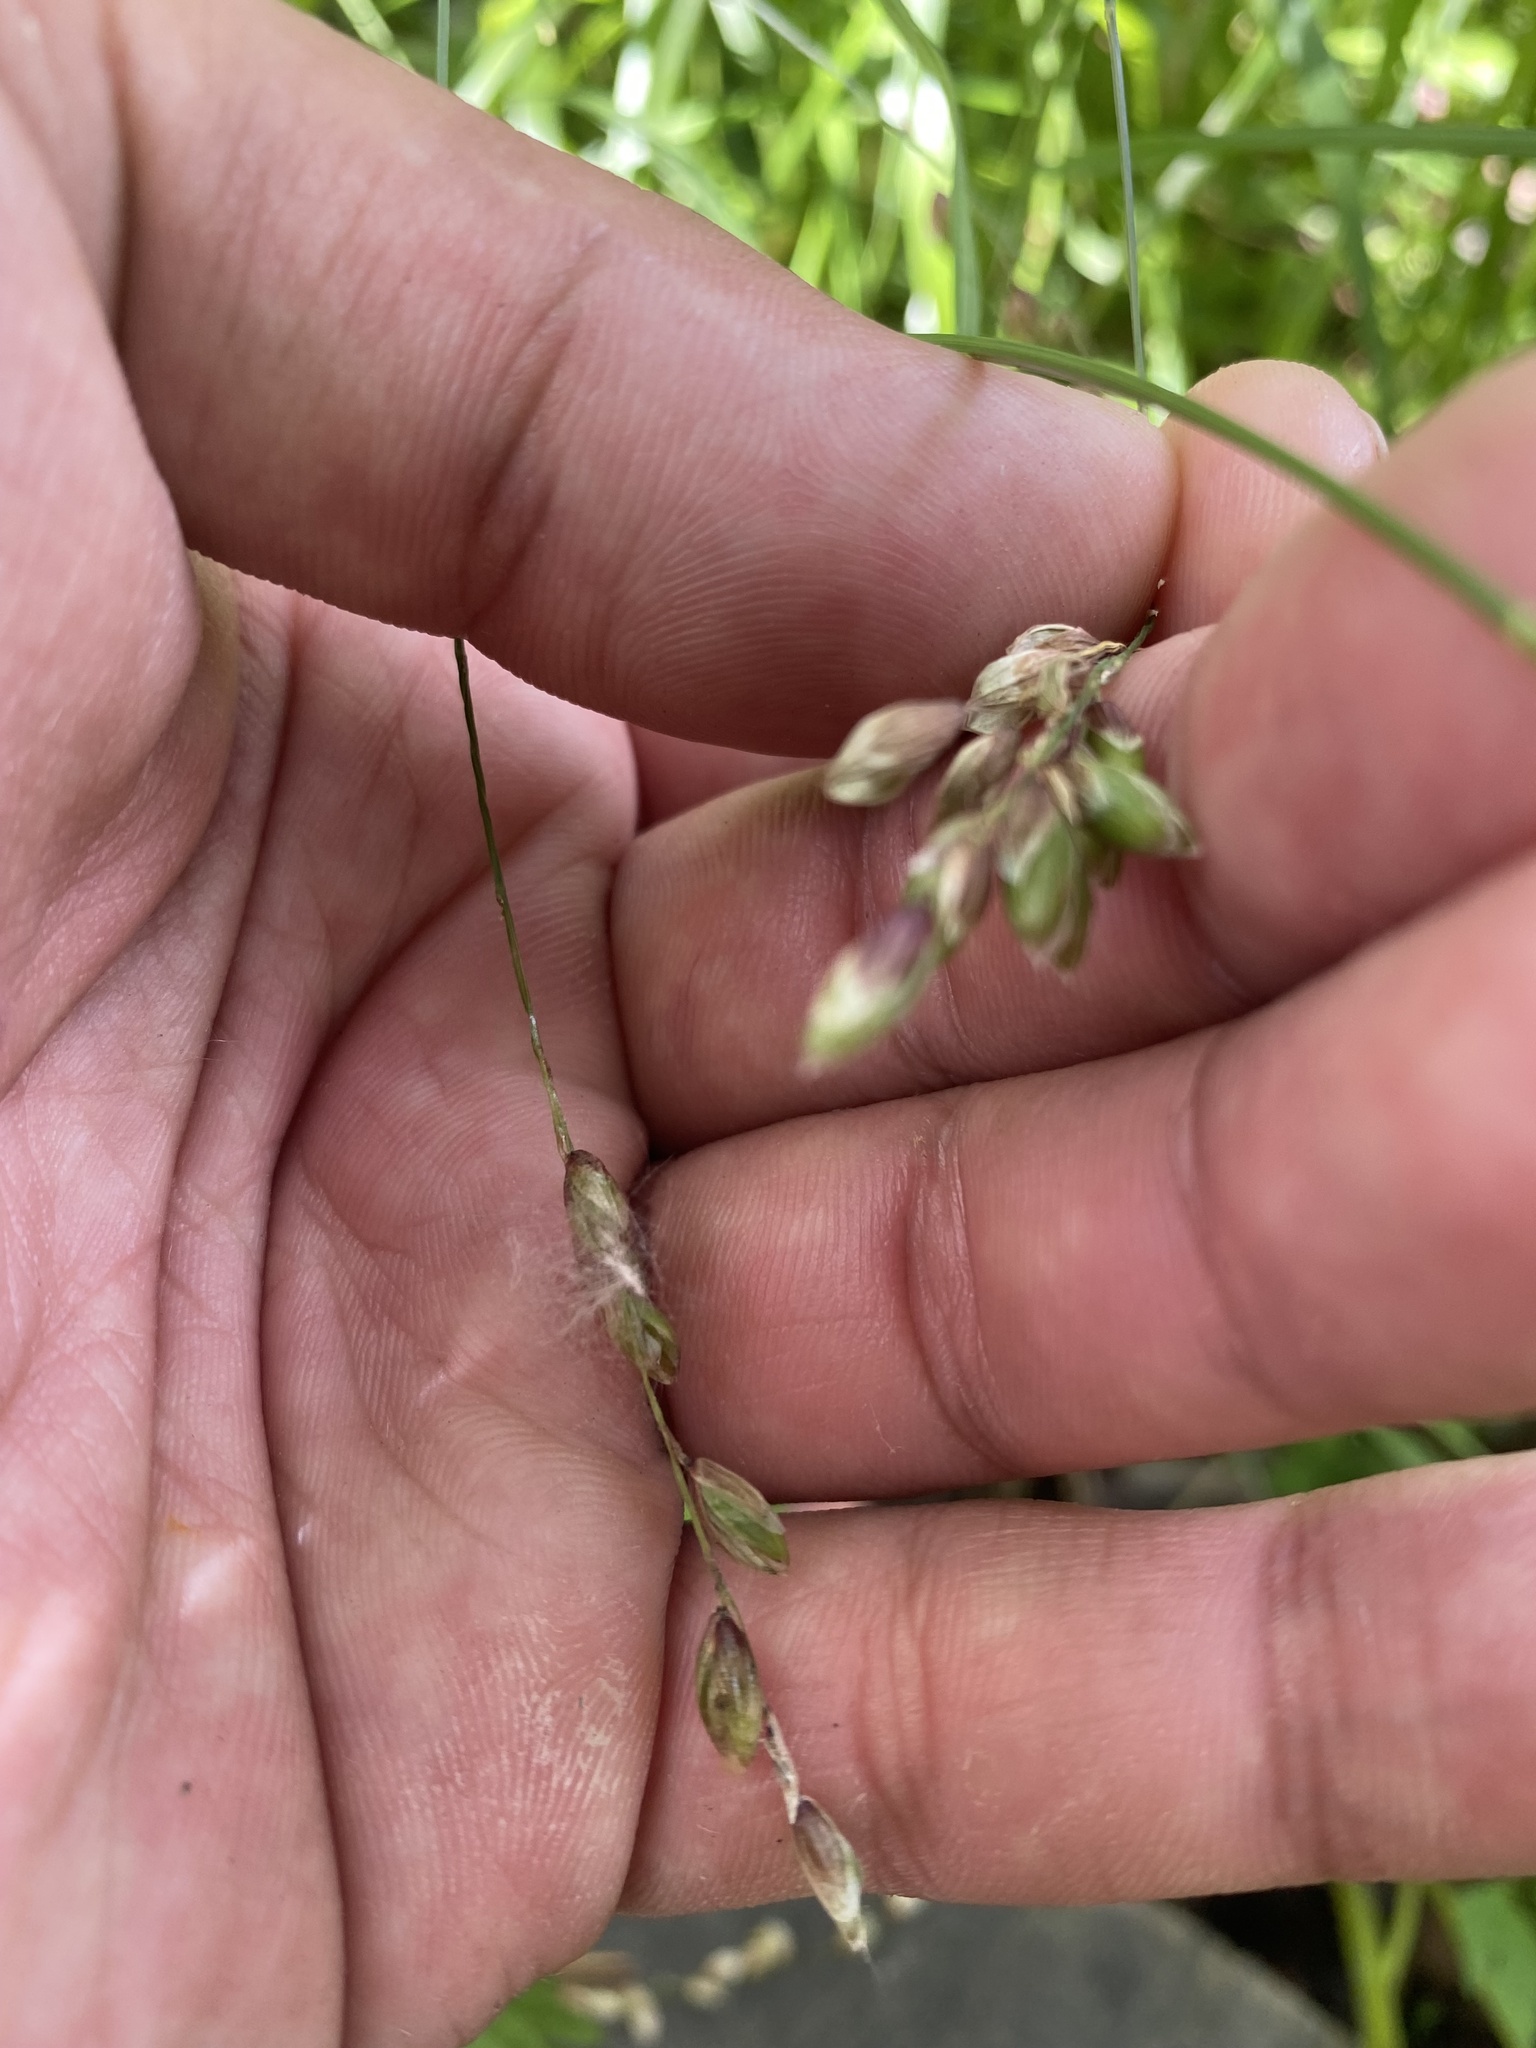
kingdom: Plantae
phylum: Tracheophyta
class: Liliopsida
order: Poales
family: Poaceae
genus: Melica
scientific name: Melica nutans
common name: Mountain melick
